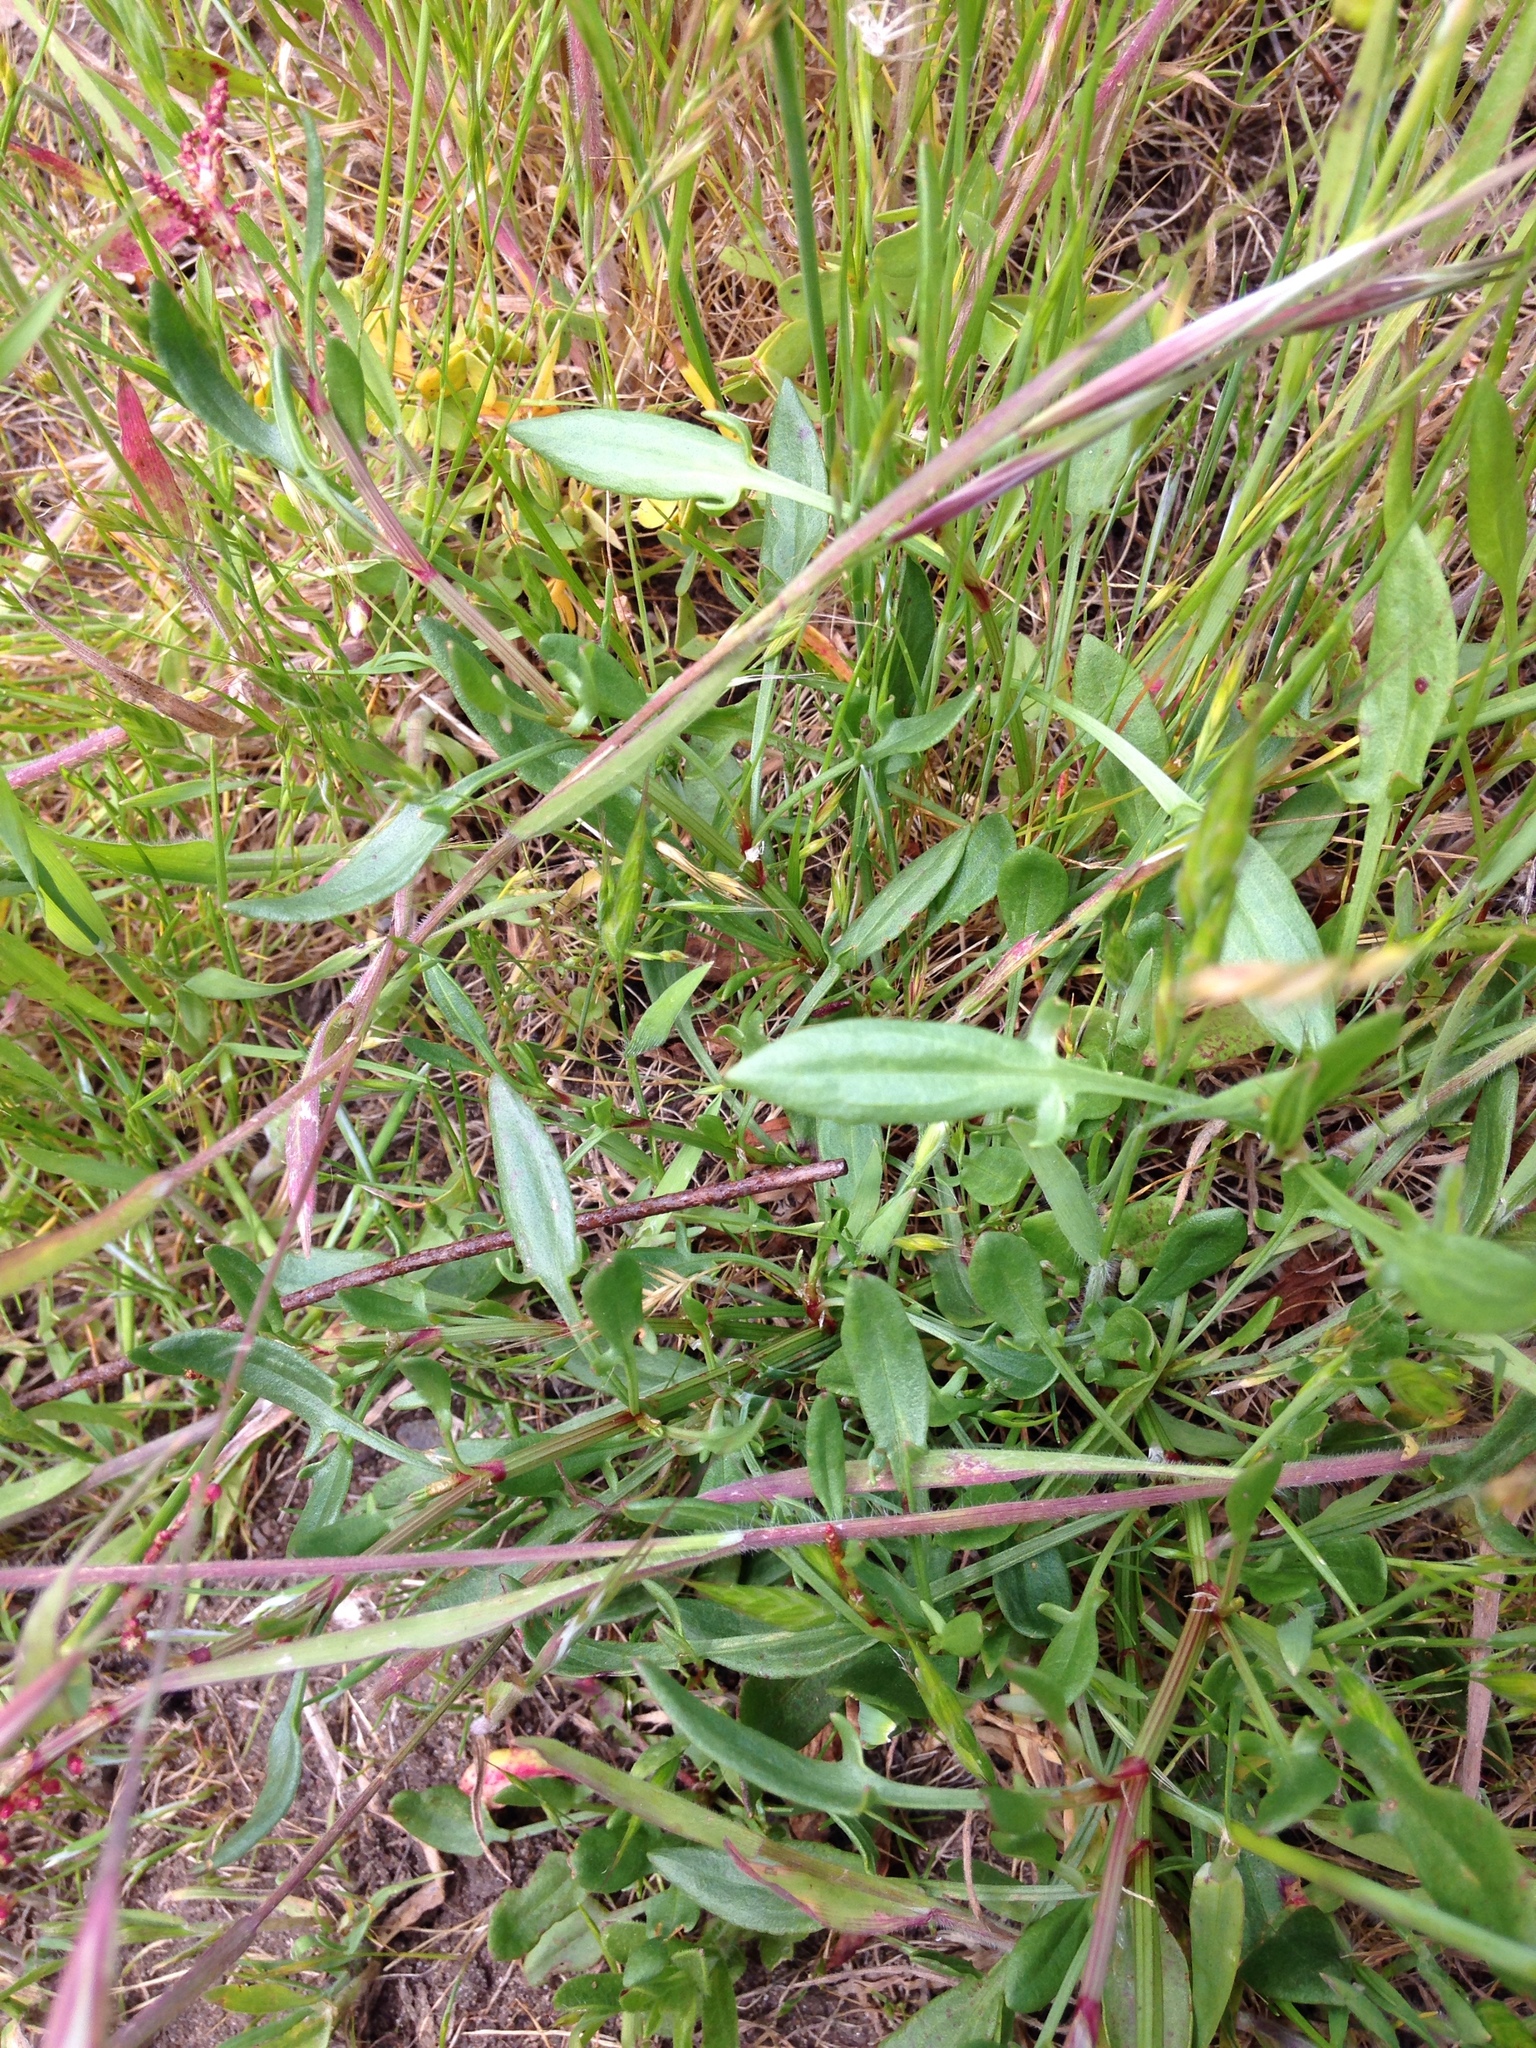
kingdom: Plantae
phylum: Tracheophyta
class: Magnoliopsida
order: Caryophyllales
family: Polygonaceae
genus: Rumex
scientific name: Rumex acetosella
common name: Common sheep sorrel
